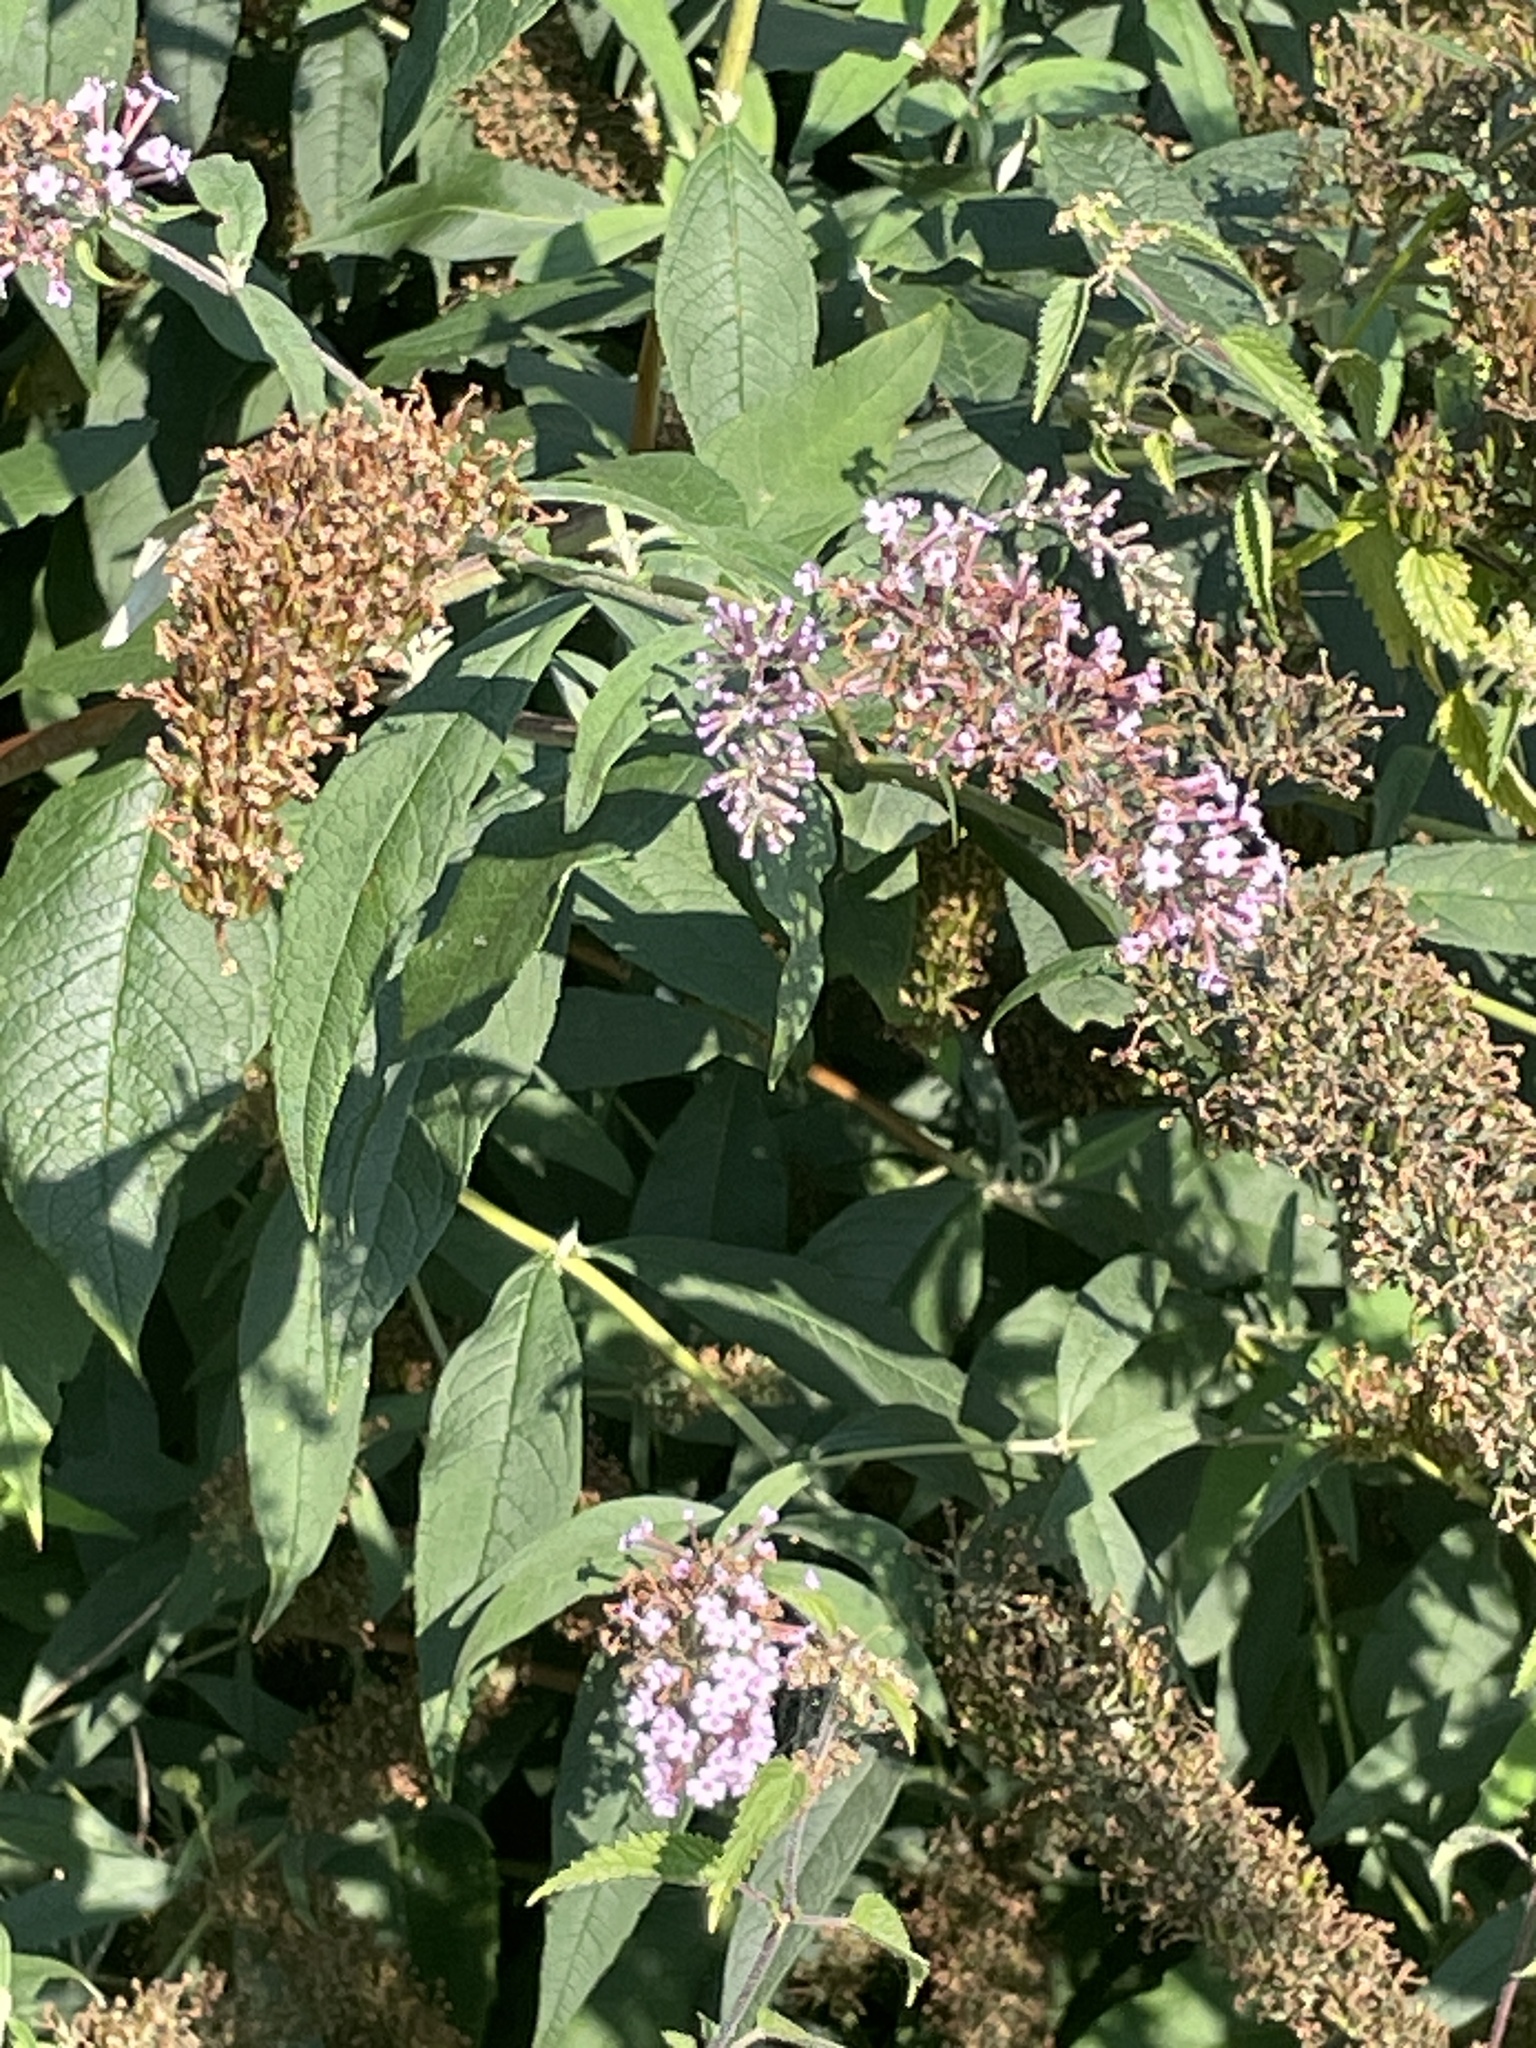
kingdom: Plantae
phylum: Tracheophyta
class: Magnoliopsida
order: Lamiales
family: Scrophulariaceae
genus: Buddleja
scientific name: Buddleja davidii
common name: Butterfly-bush
